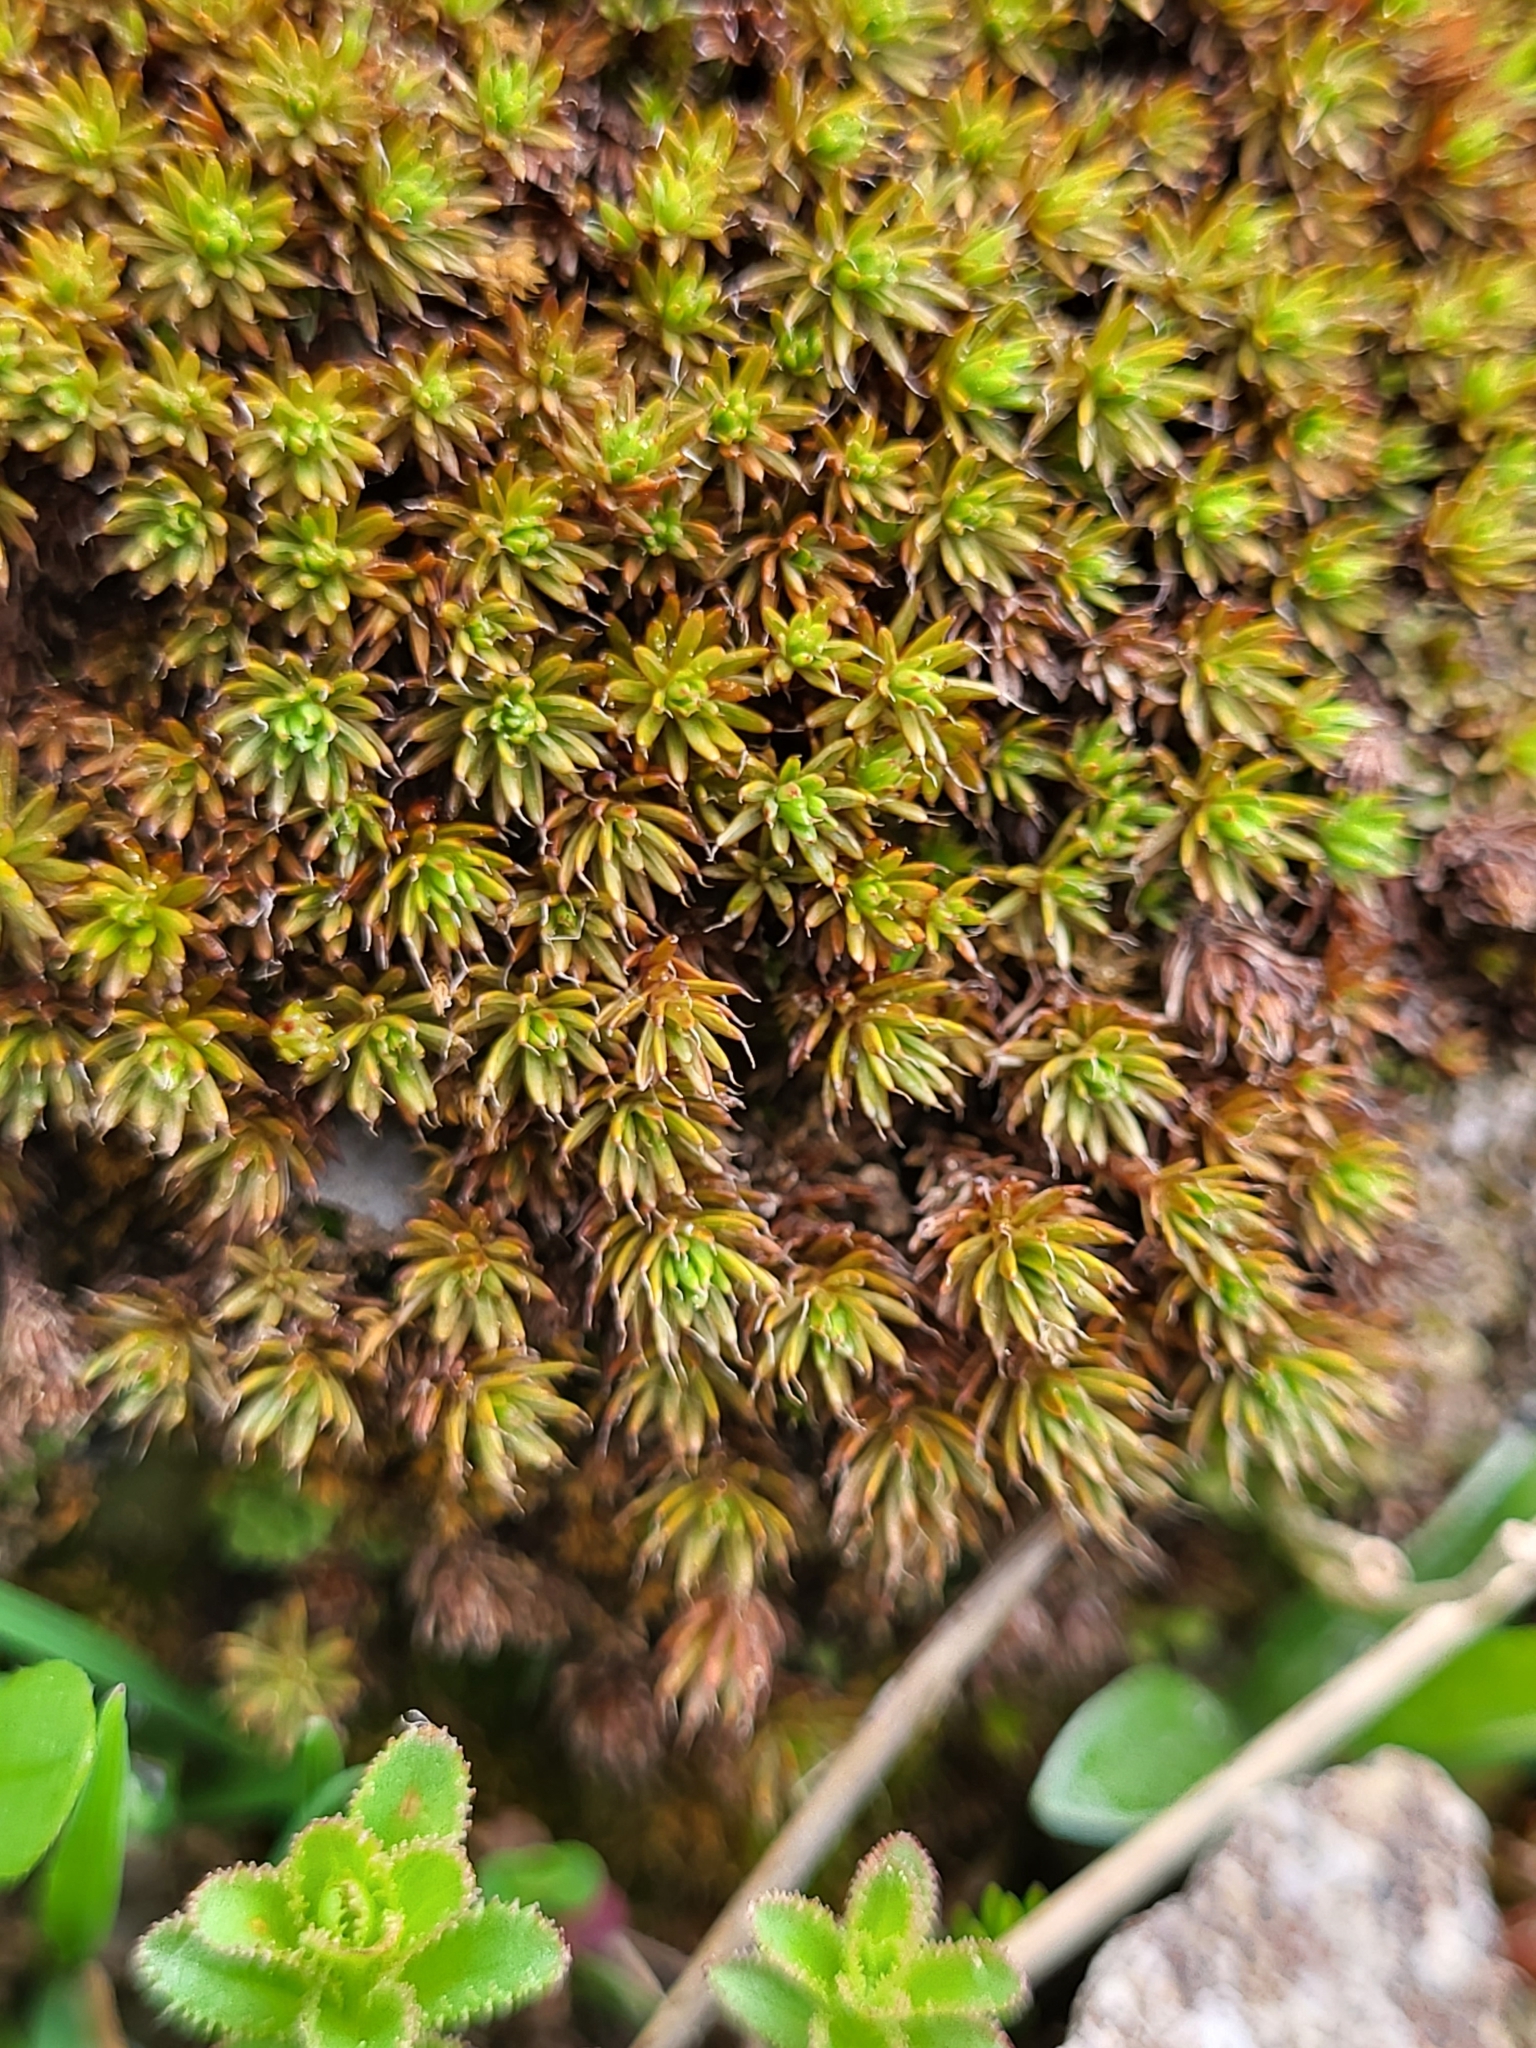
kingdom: Plantae
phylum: Bryophyta
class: Polytrichopsida
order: Polytrichales
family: Polytrichaceae
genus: Polytrichum
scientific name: Polytrichum piliferum
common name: Bristly haircap
